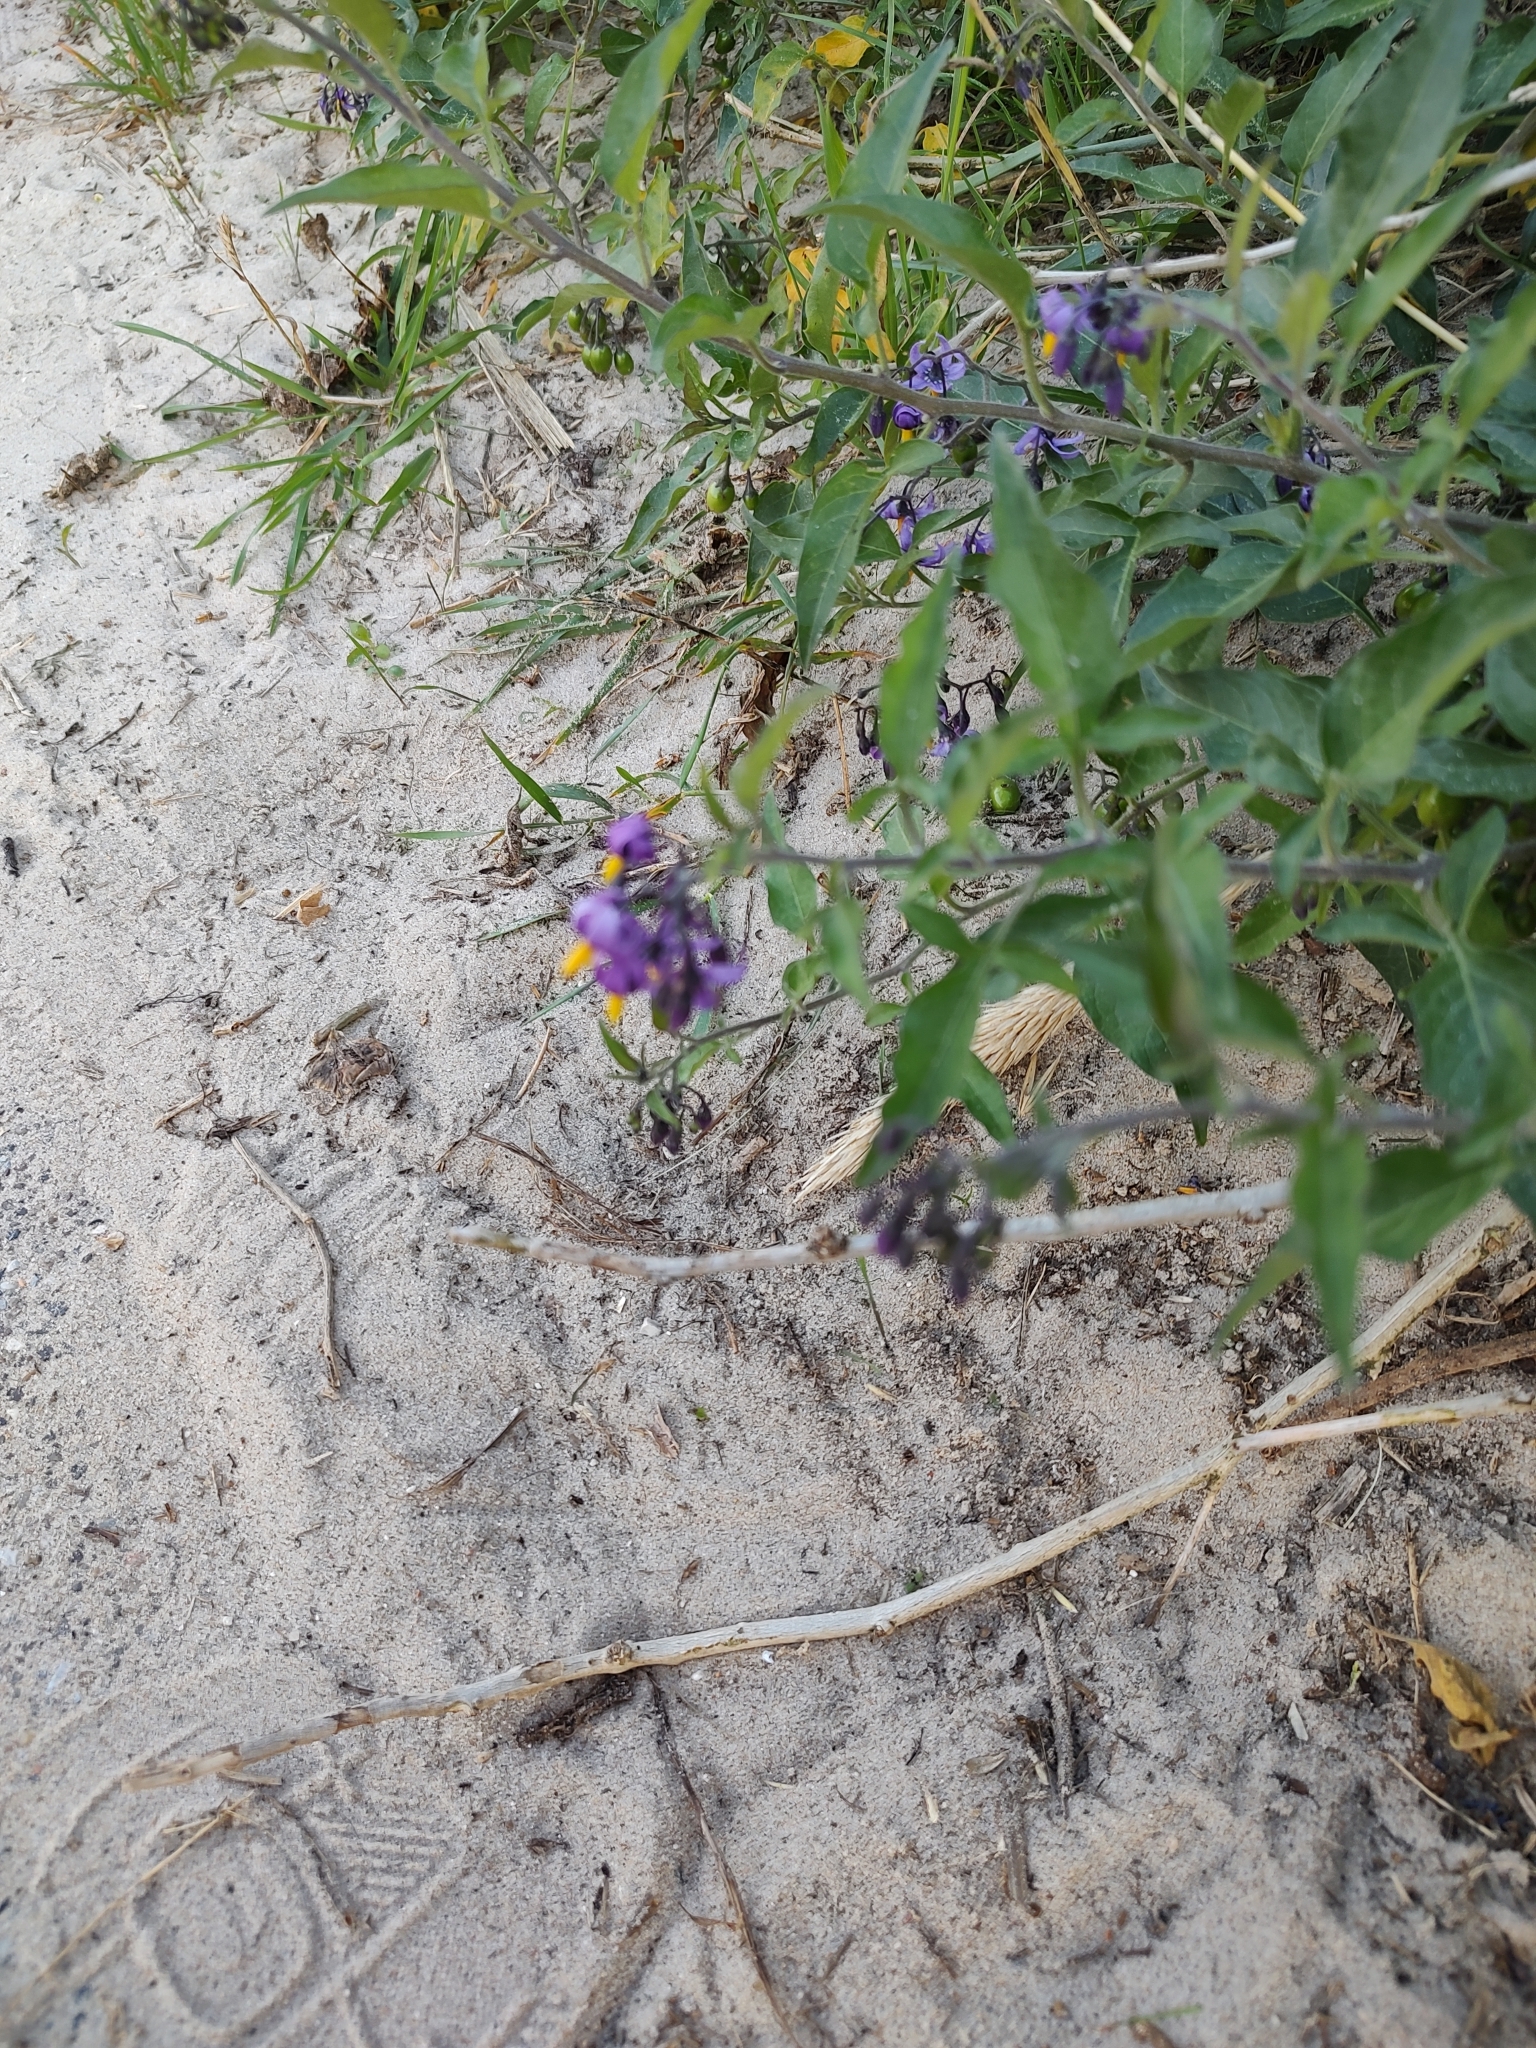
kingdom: Plantae
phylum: Tracheophyta
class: Magnoliopsida
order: Solanales
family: Solanaceae
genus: Solanum
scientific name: Solanum dulcamara
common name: Climbing nightshade
